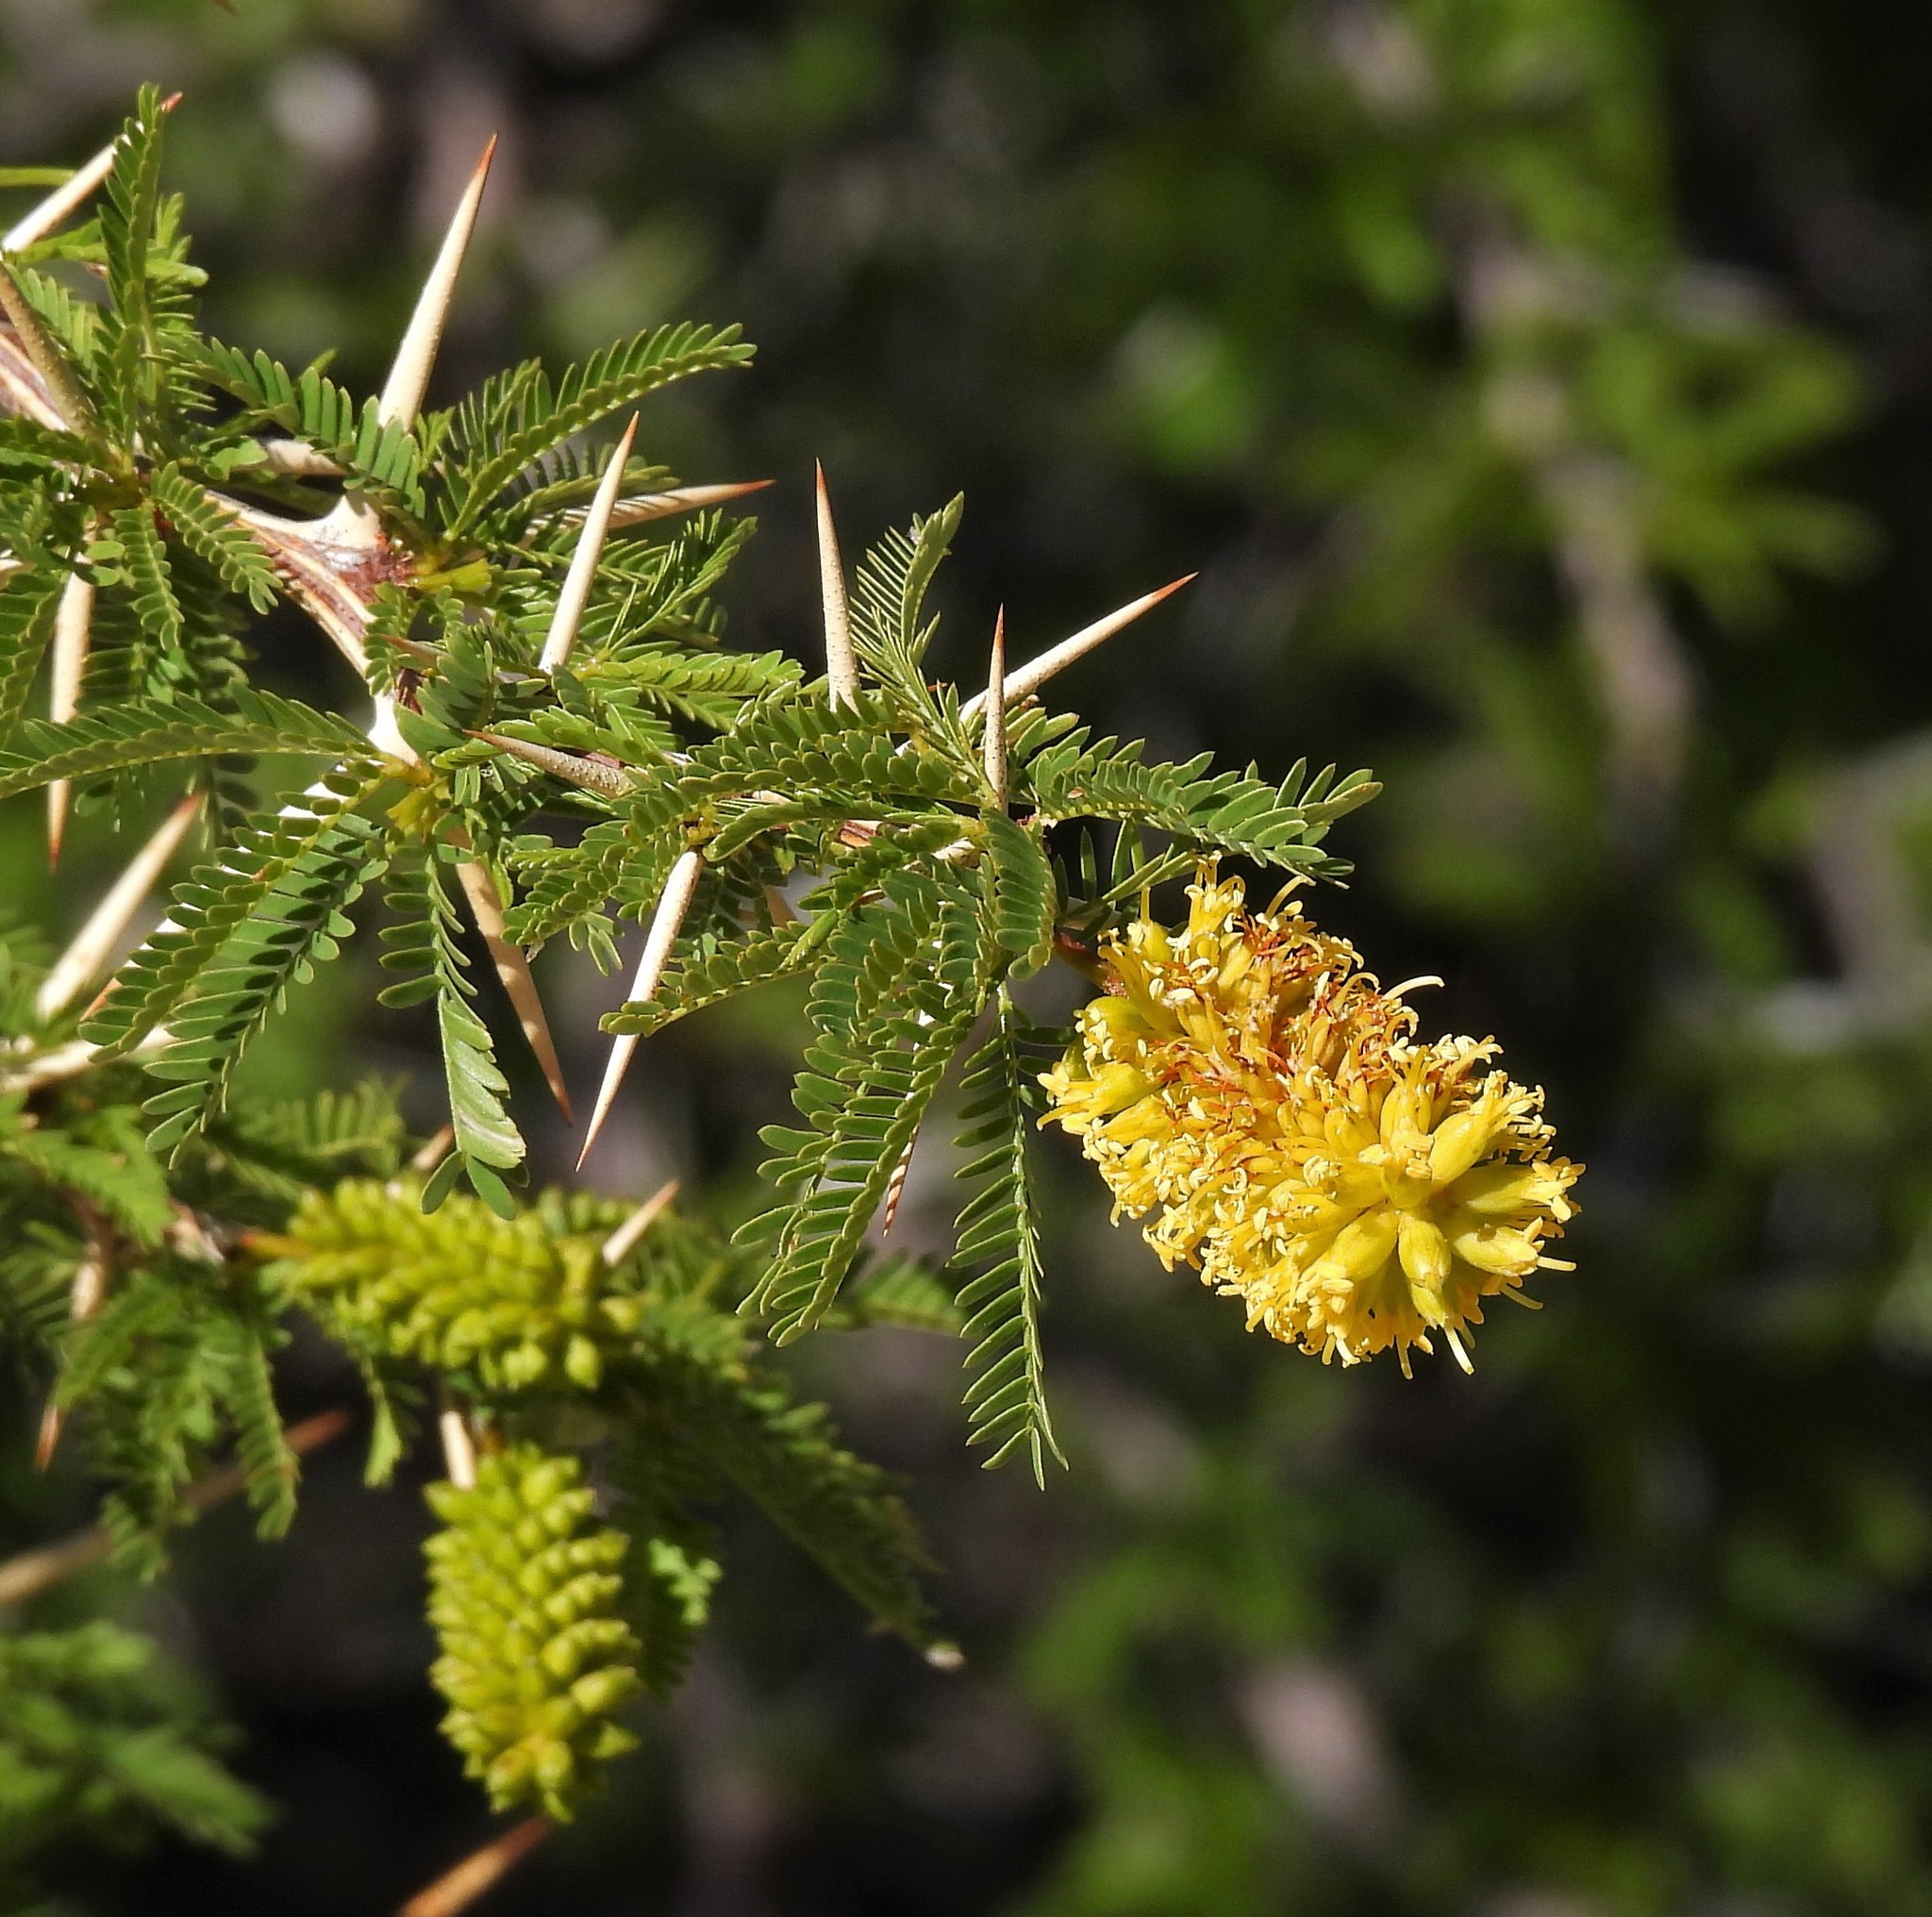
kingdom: Plantae
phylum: Tracheophyta
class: Magnoliopsida
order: Fabales
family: Fabaceae
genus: Prosopis
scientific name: Prosopis ferox
